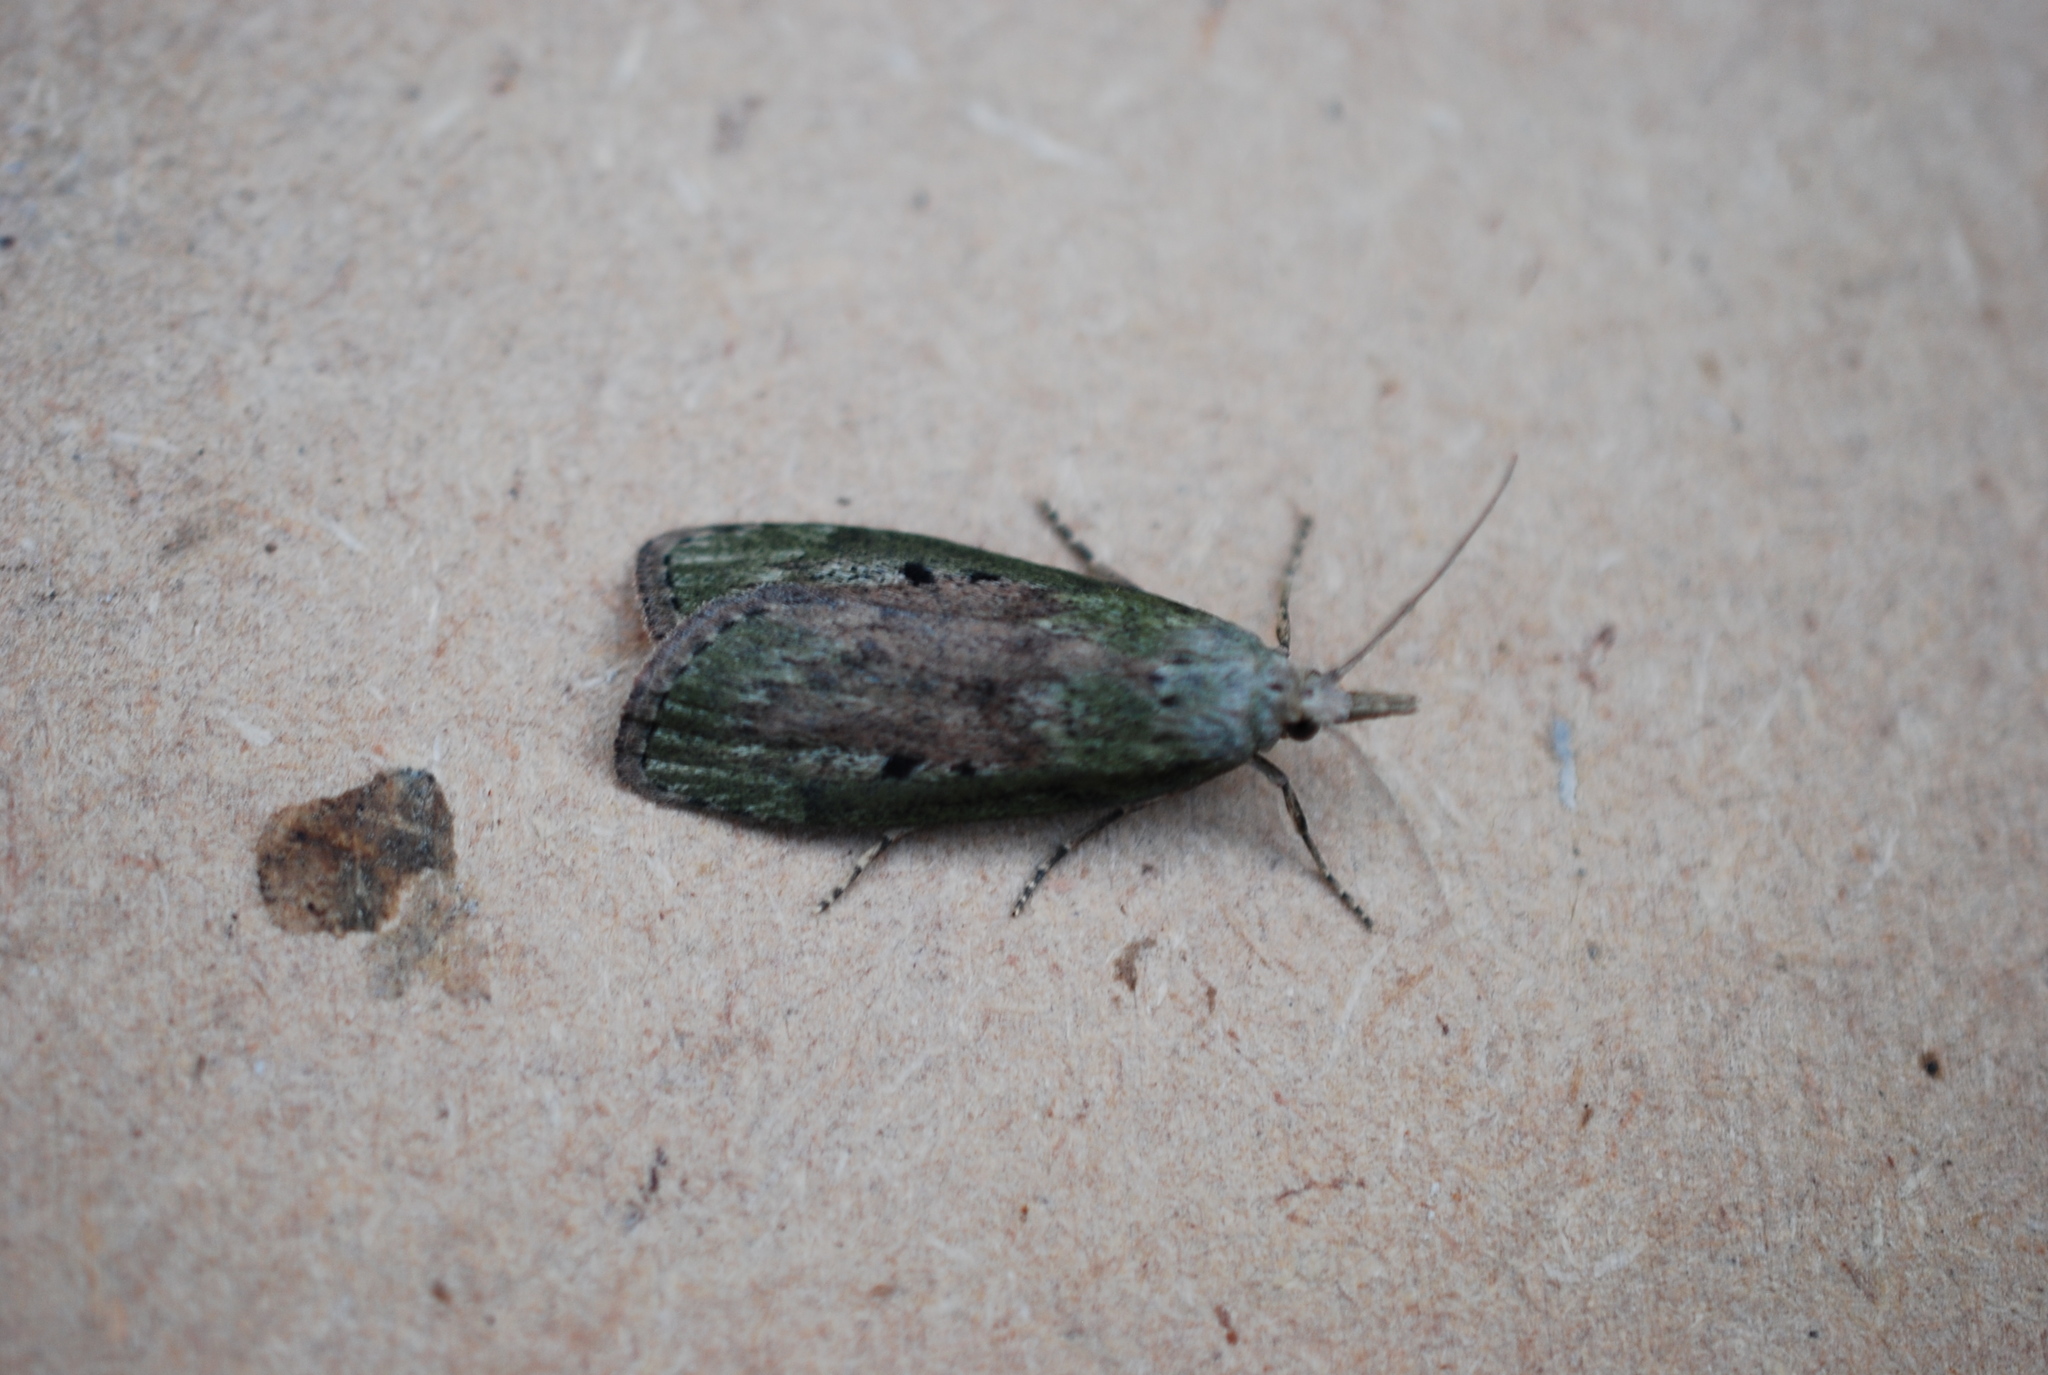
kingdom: Animalia
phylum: Arthropoda
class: Insecta
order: Lepidoptera
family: Pyralidae
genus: Aphomia
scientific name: Aphomia sociella
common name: Bee moth
